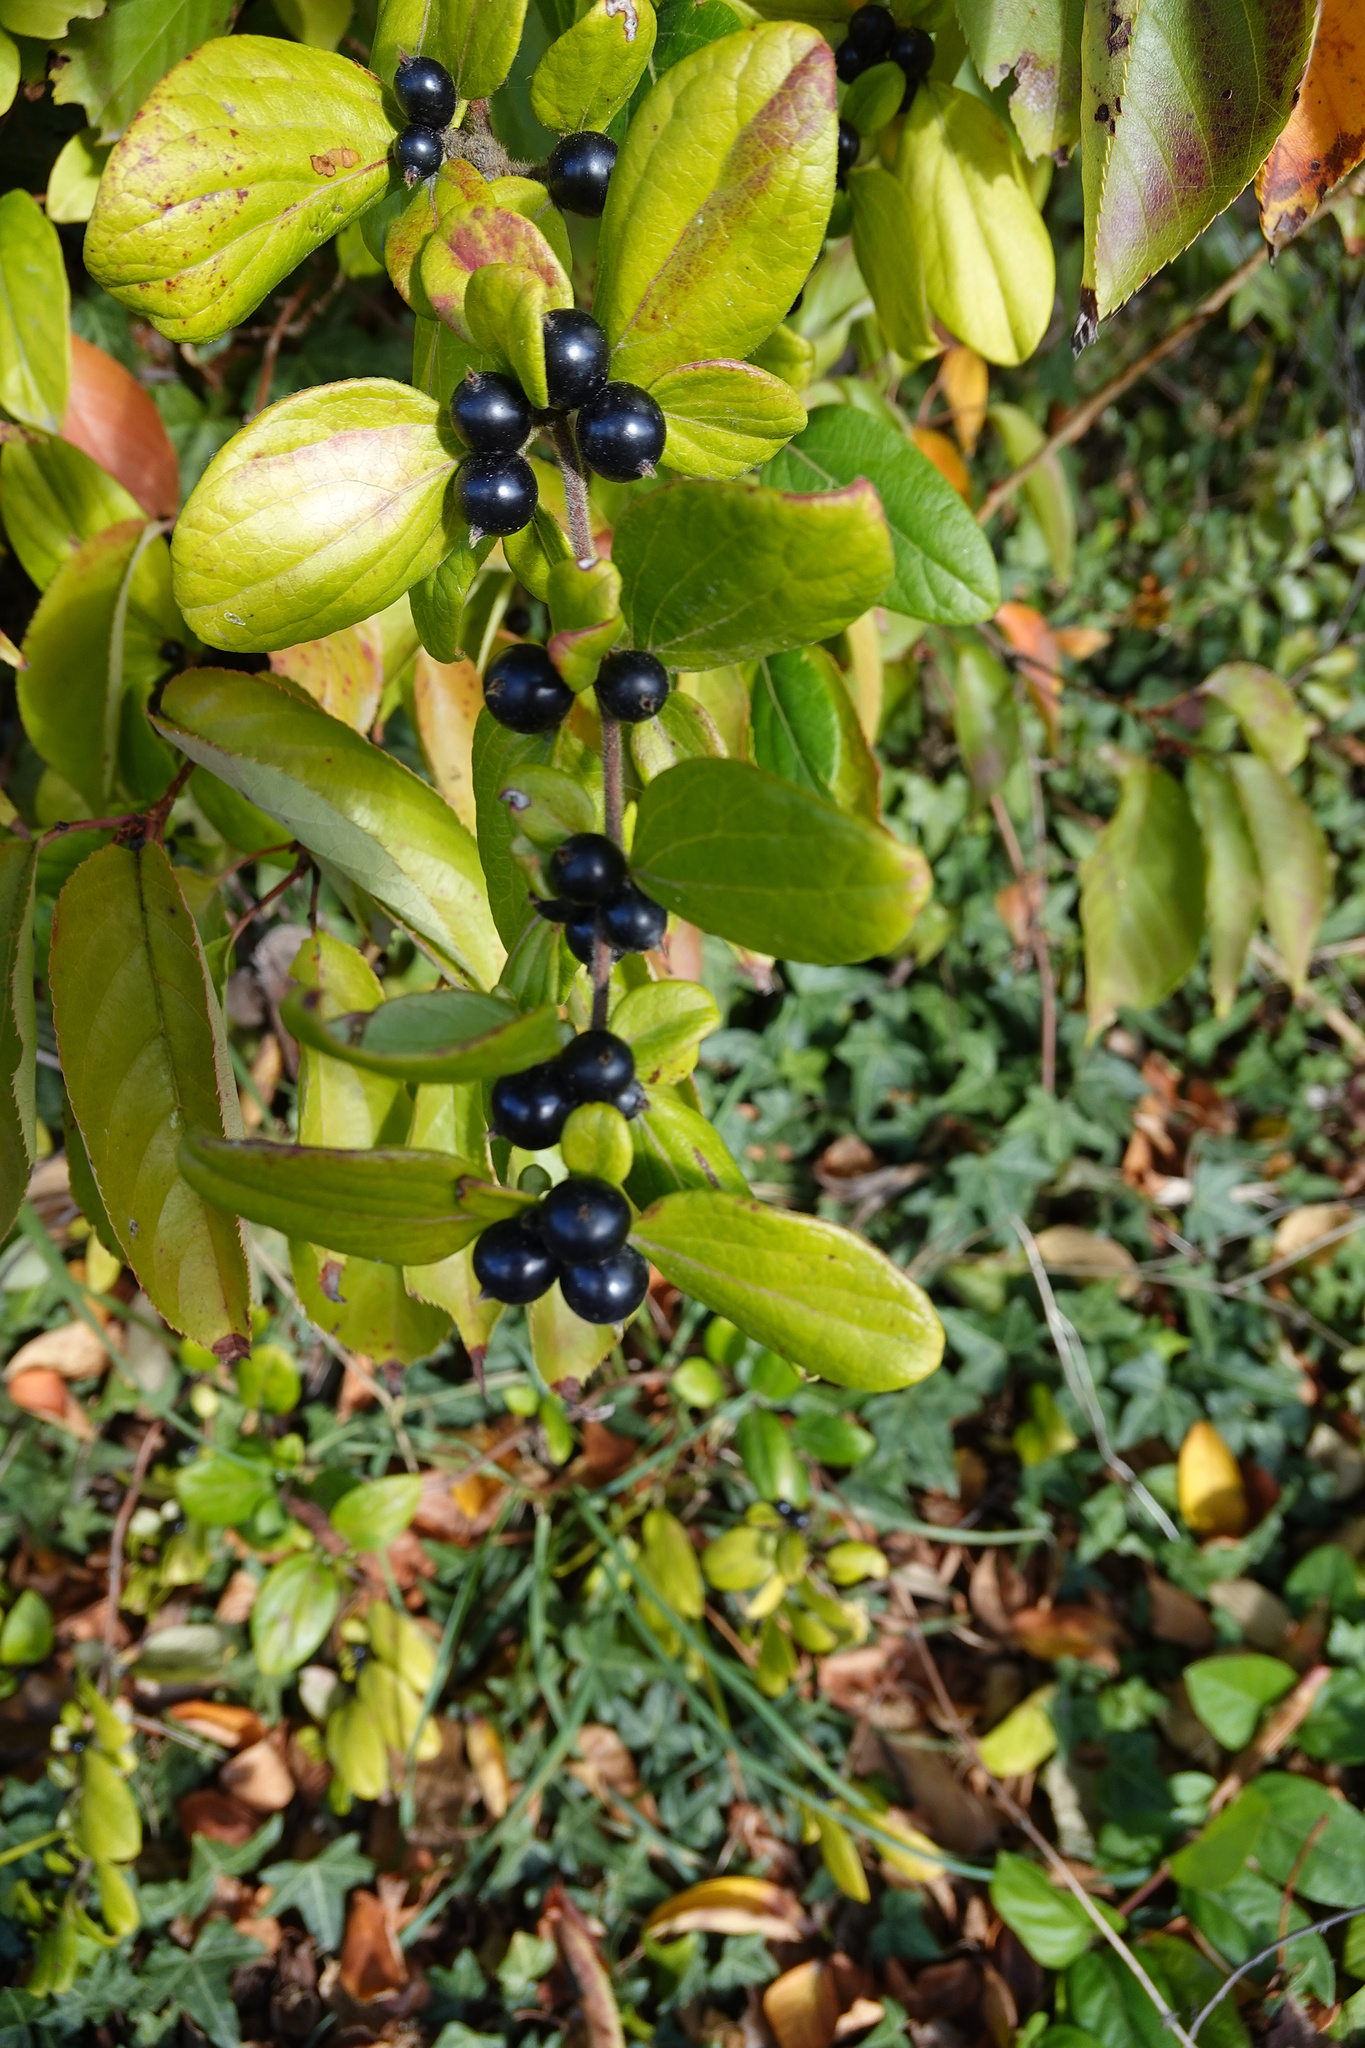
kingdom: Plantae
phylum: Tracheophyta
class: Magnoliopsida
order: Dipsacales
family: Caprifoliaceae
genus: Lonicera
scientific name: Lonicera japonica
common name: Japanese honeysuckle
